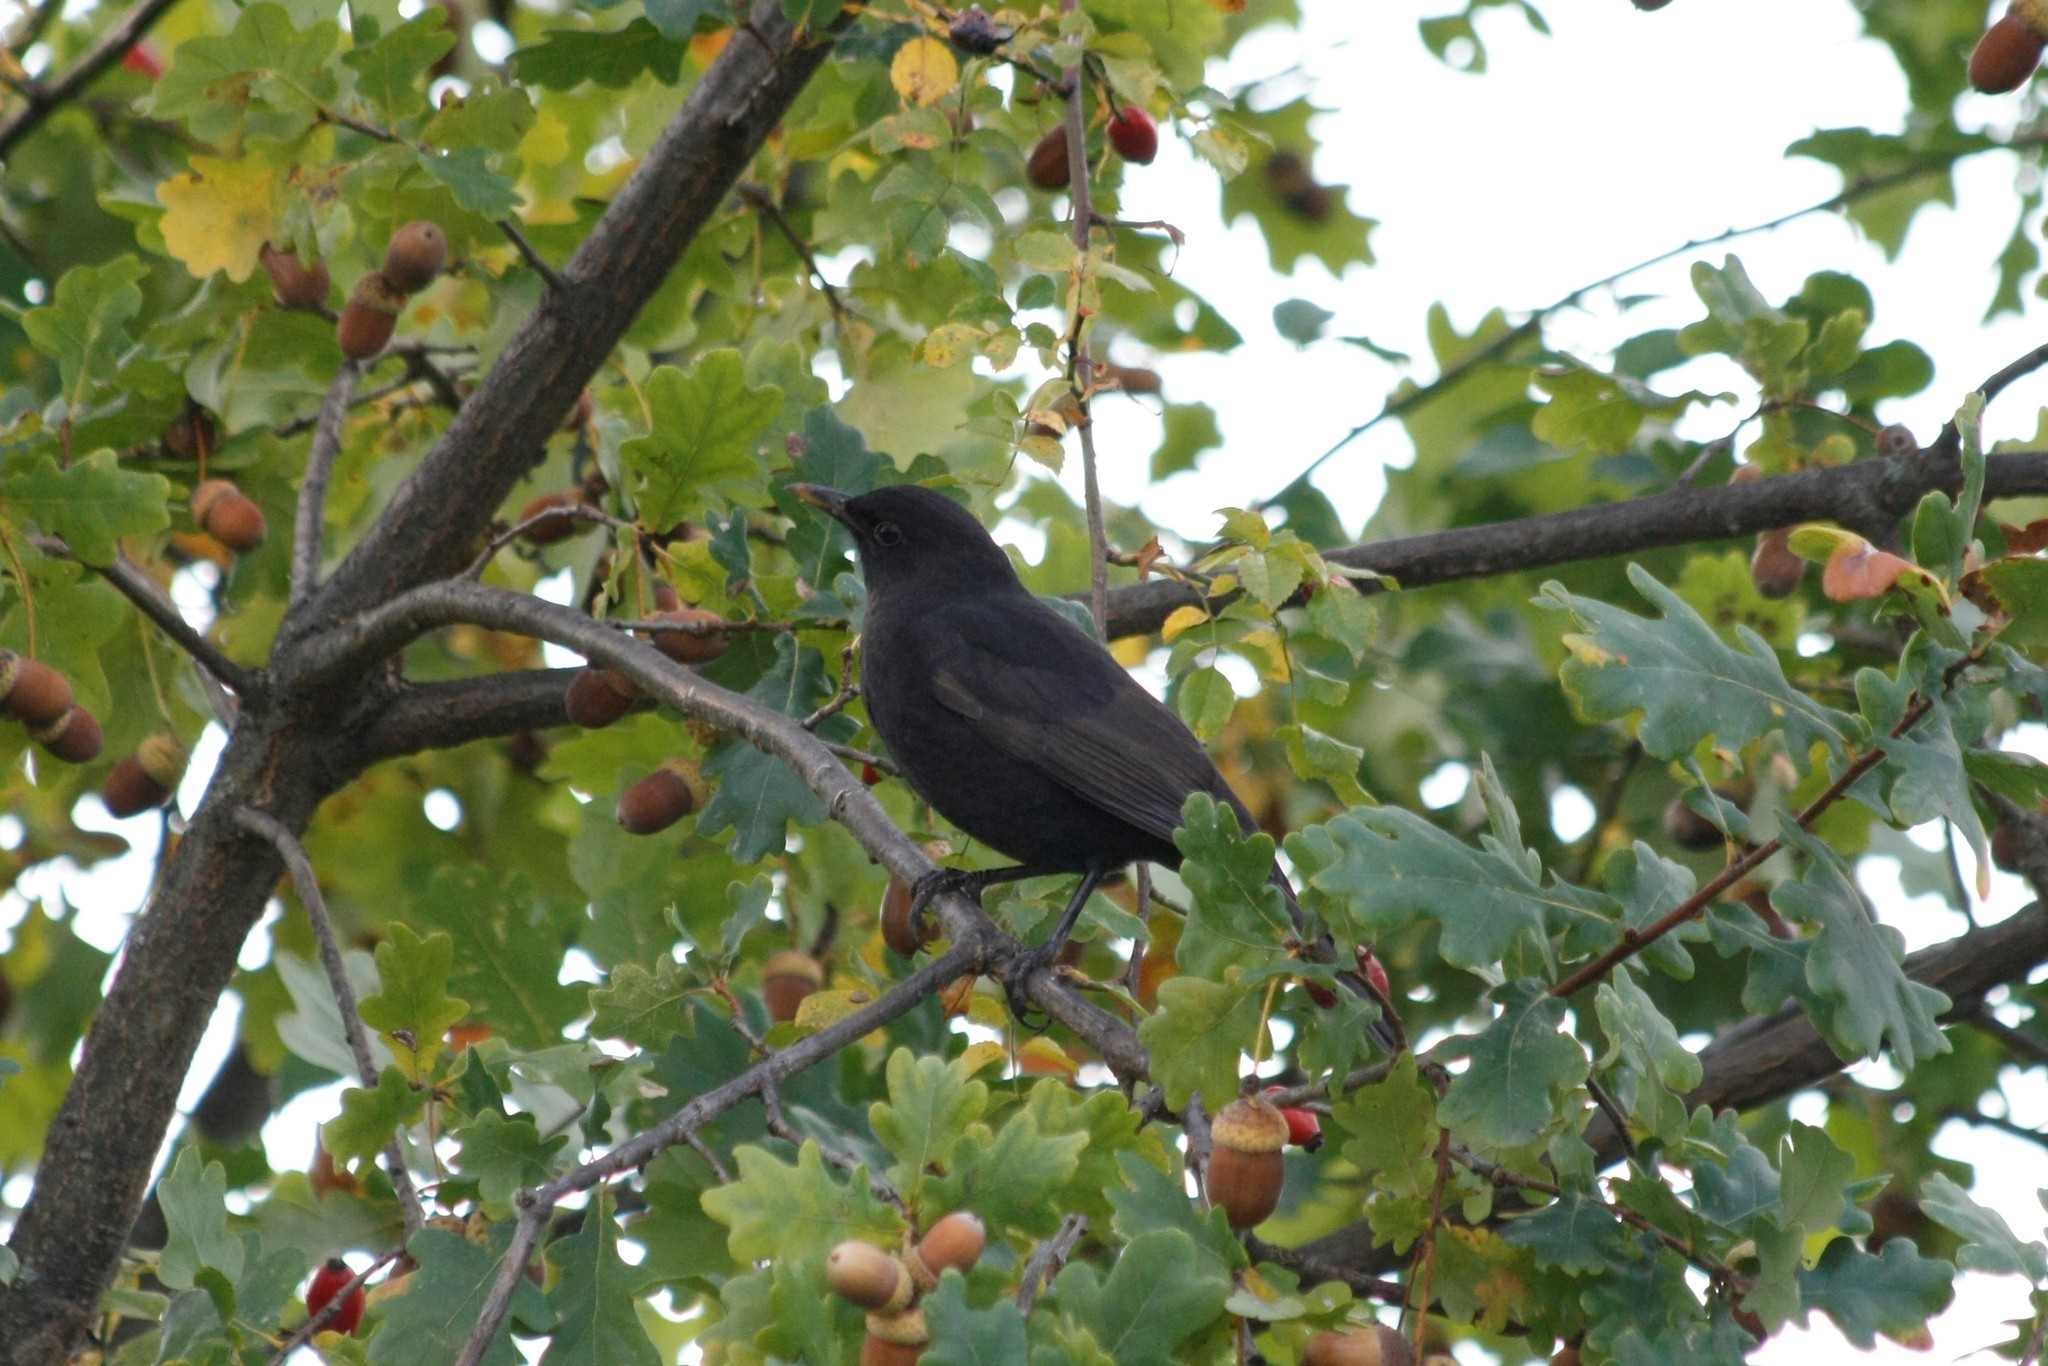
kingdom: Animalia
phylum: Chordata
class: Aves
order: Passeriformes
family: Turdidae
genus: Turdus
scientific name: Turdus merula
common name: Common blackbird
